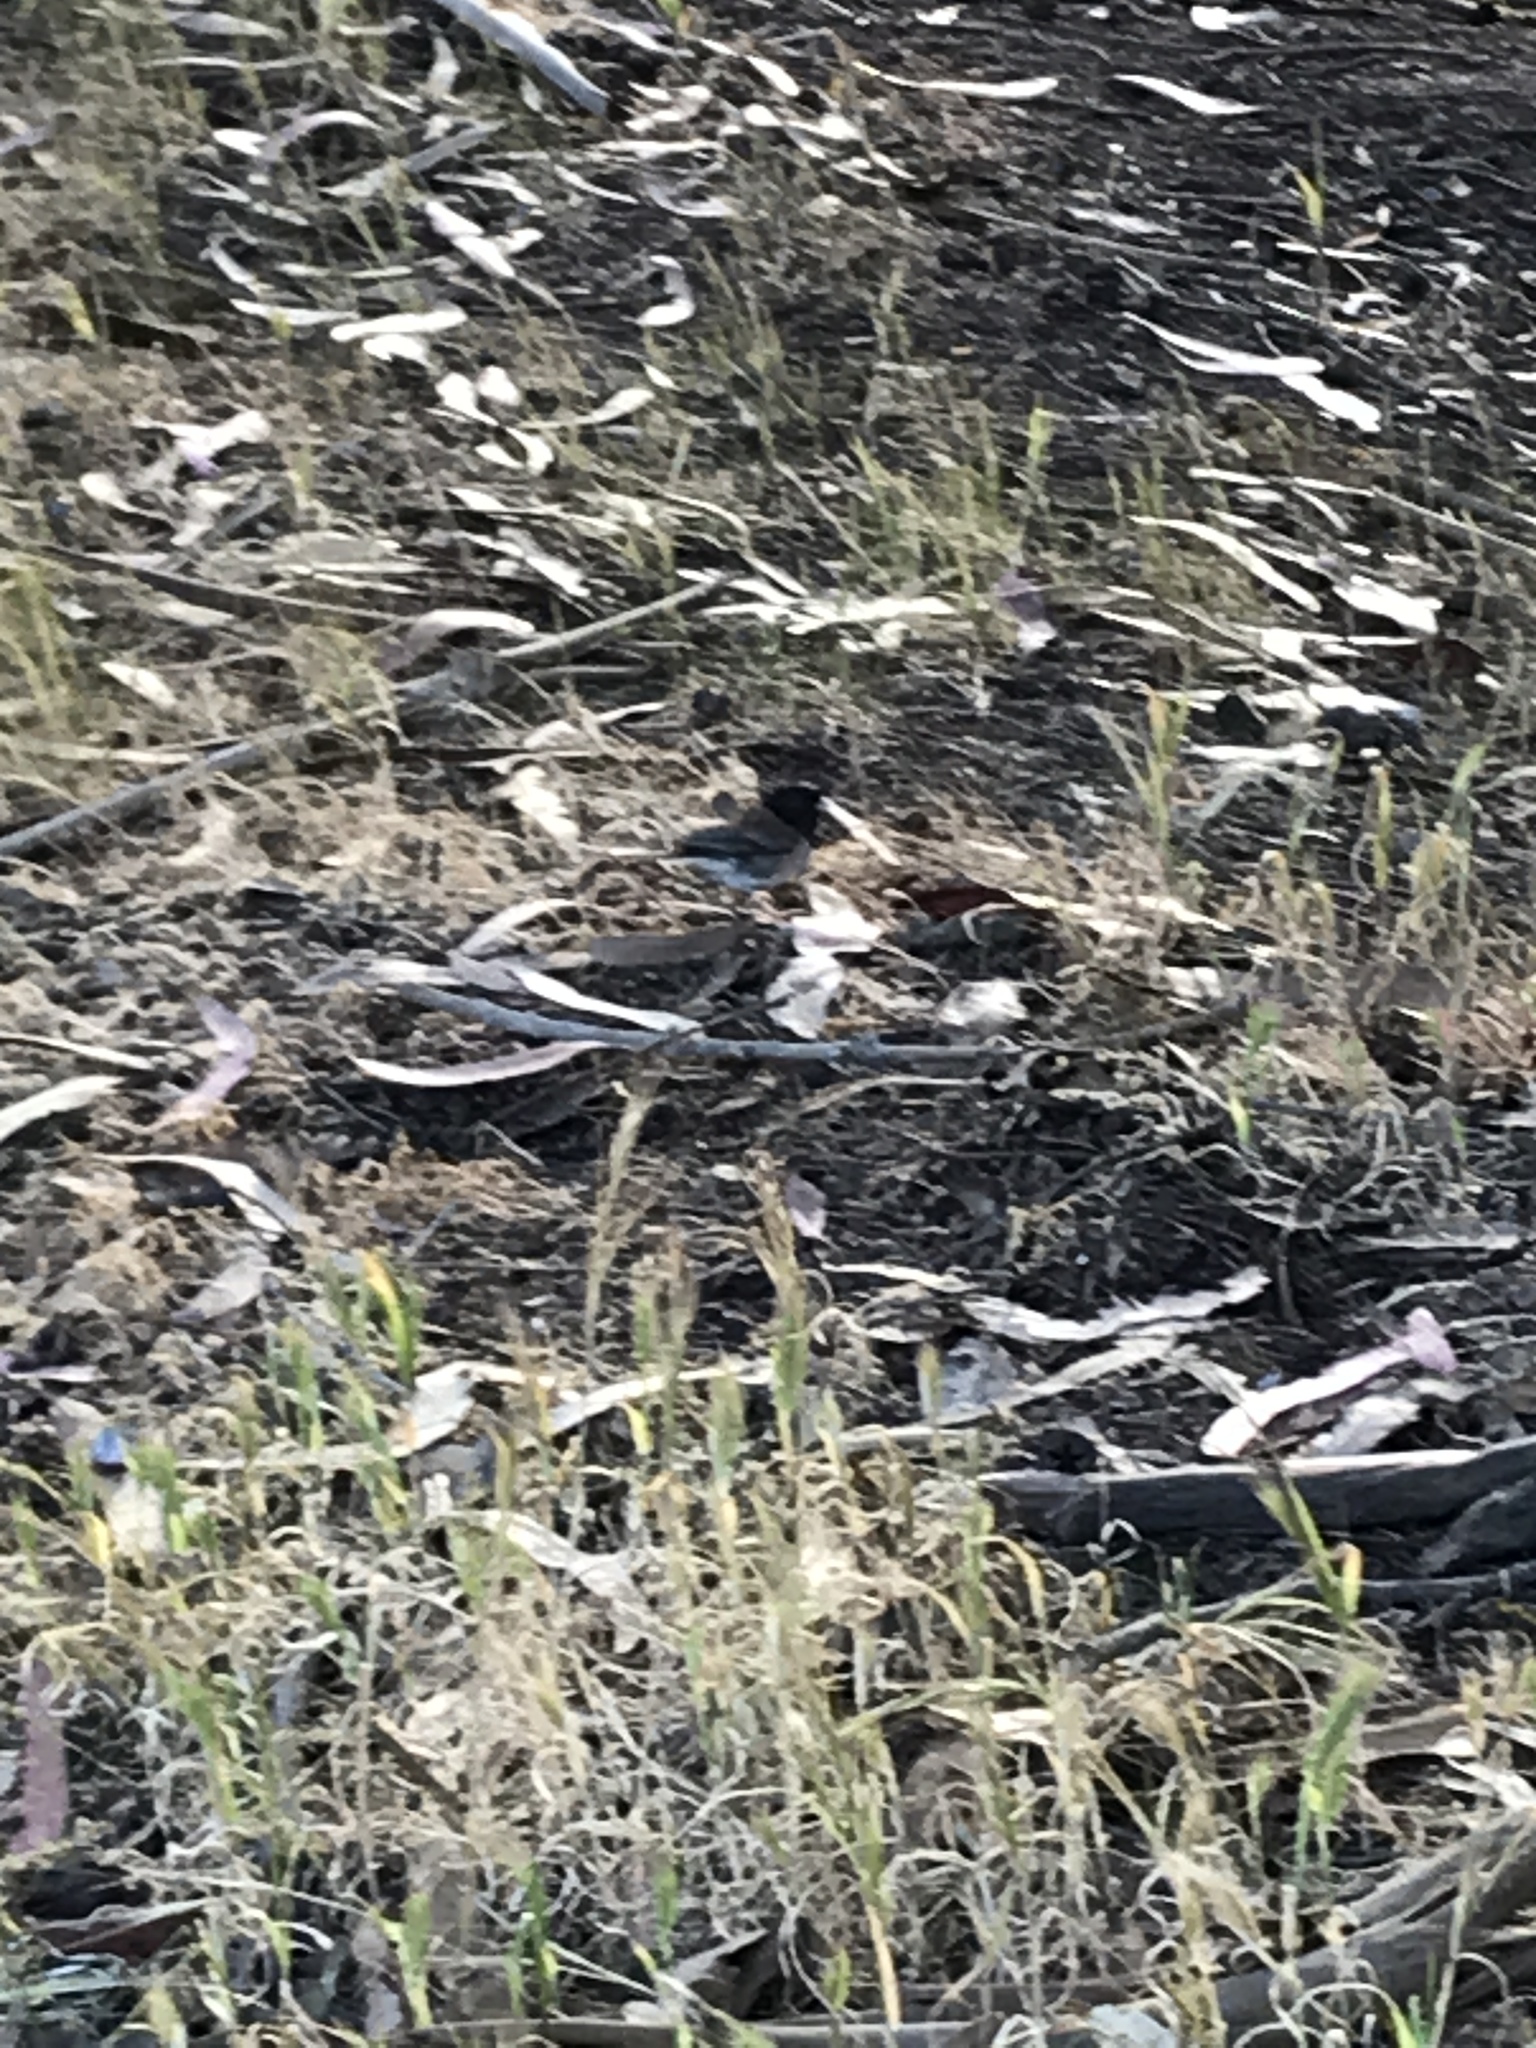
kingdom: Animalia
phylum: Chordata
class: Aves
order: Passeriformes
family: Passerellidae
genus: Junco
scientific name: Junco hyemalis
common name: Dark-eyed junco
